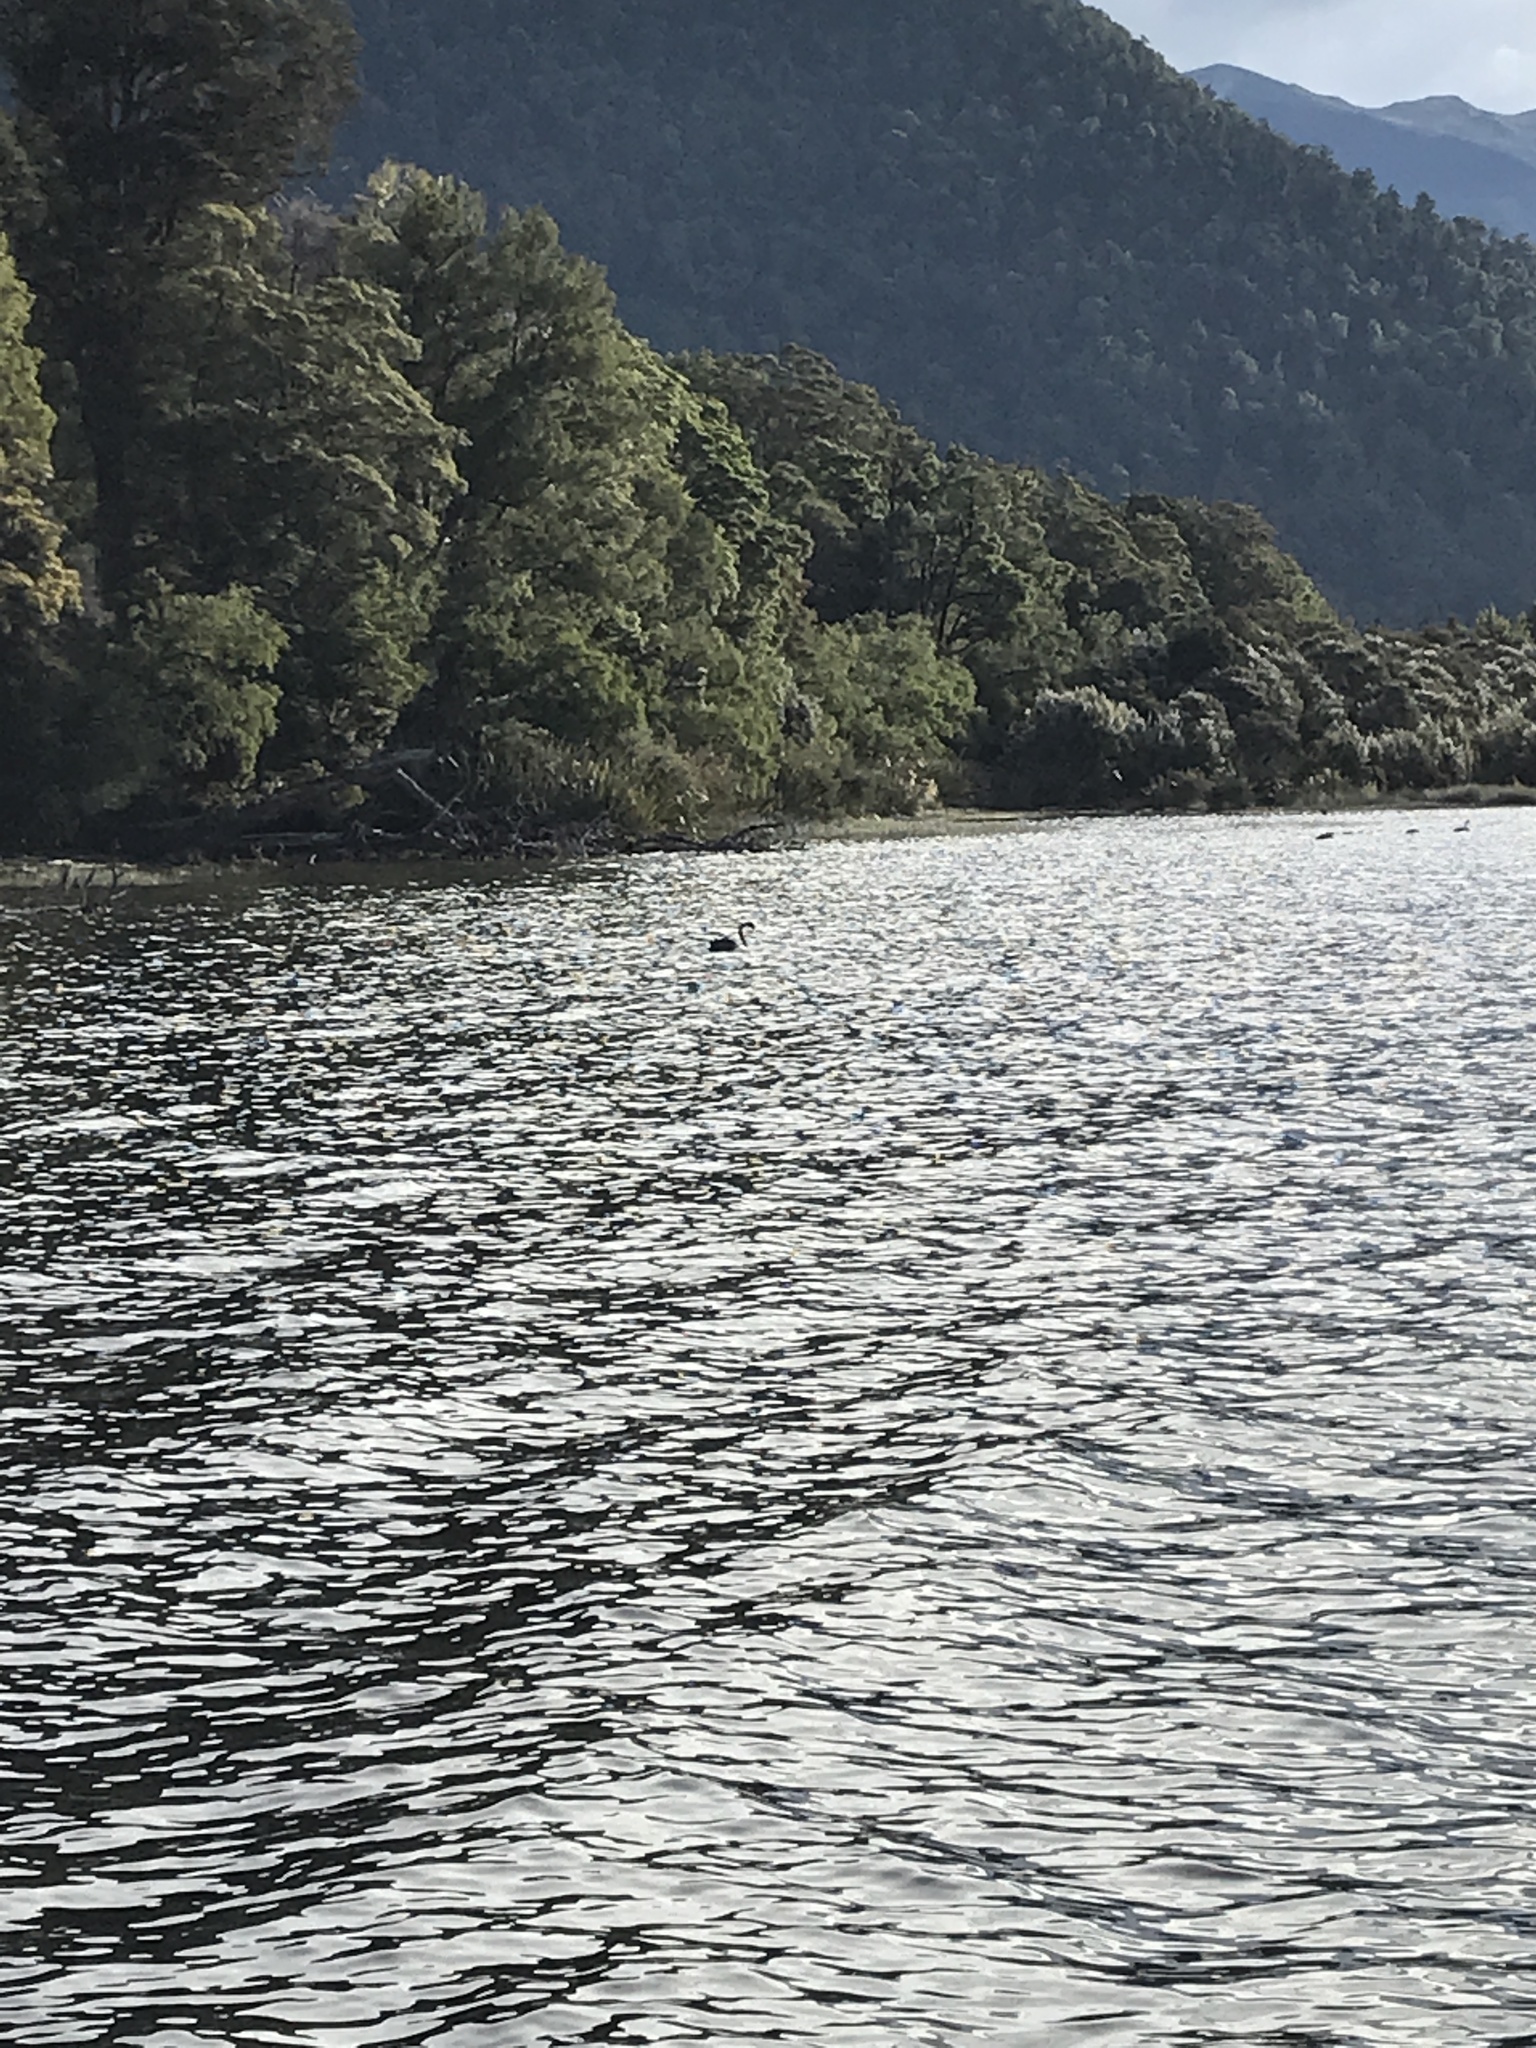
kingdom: Animalia
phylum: Chordata
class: Aves
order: Anseriformes
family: Anatidae
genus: Cygnus
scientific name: Cygnus atratus
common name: Black swan
